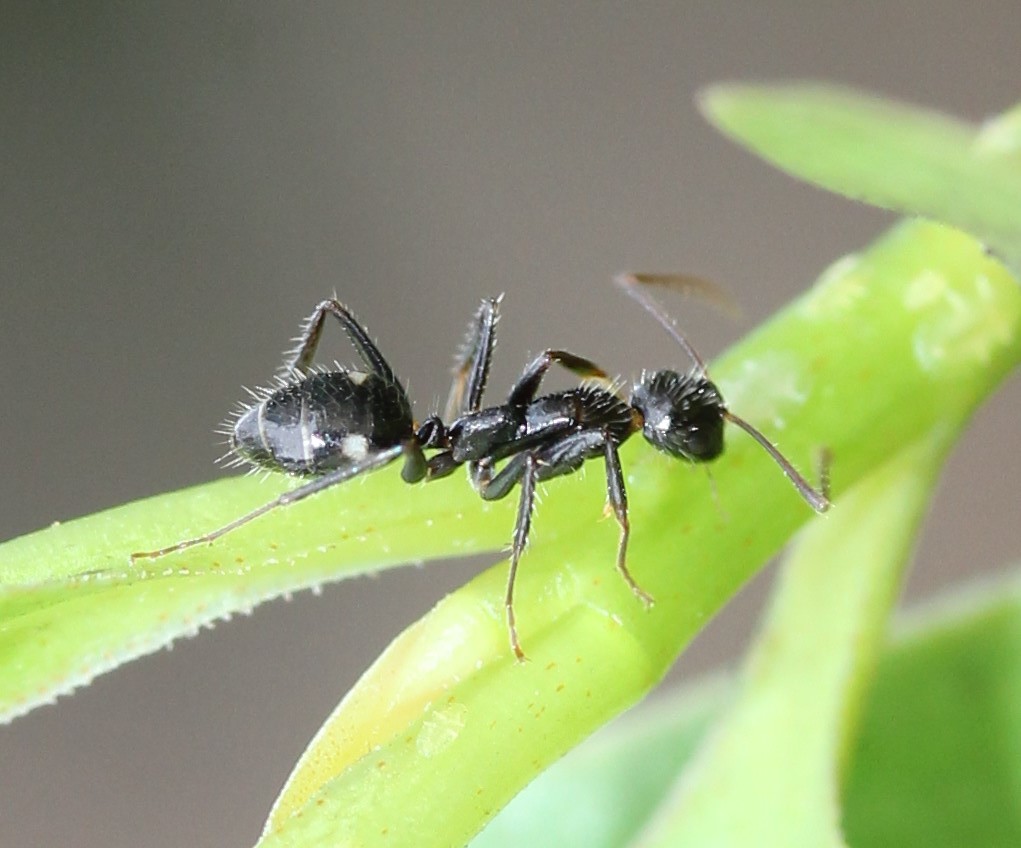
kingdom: Animalia
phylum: Arthropoda
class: Insecta
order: Hymenoptera
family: Formicidae
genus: Camponotus
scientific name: Camponotus sexguttatus
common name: Neotropical carpenter ant
